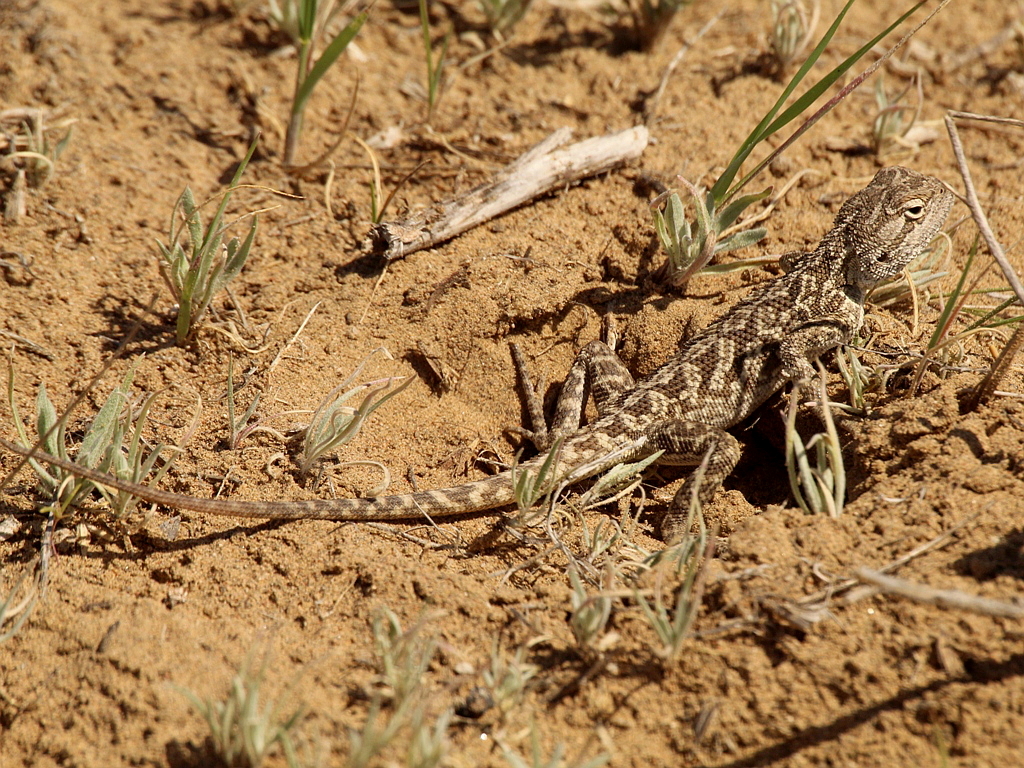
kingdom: Animalia
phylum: Chordata
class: Squamata
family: Agamidae
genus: Trapelus
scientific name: Trapelus sanguinolentus
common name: Steppe agama
